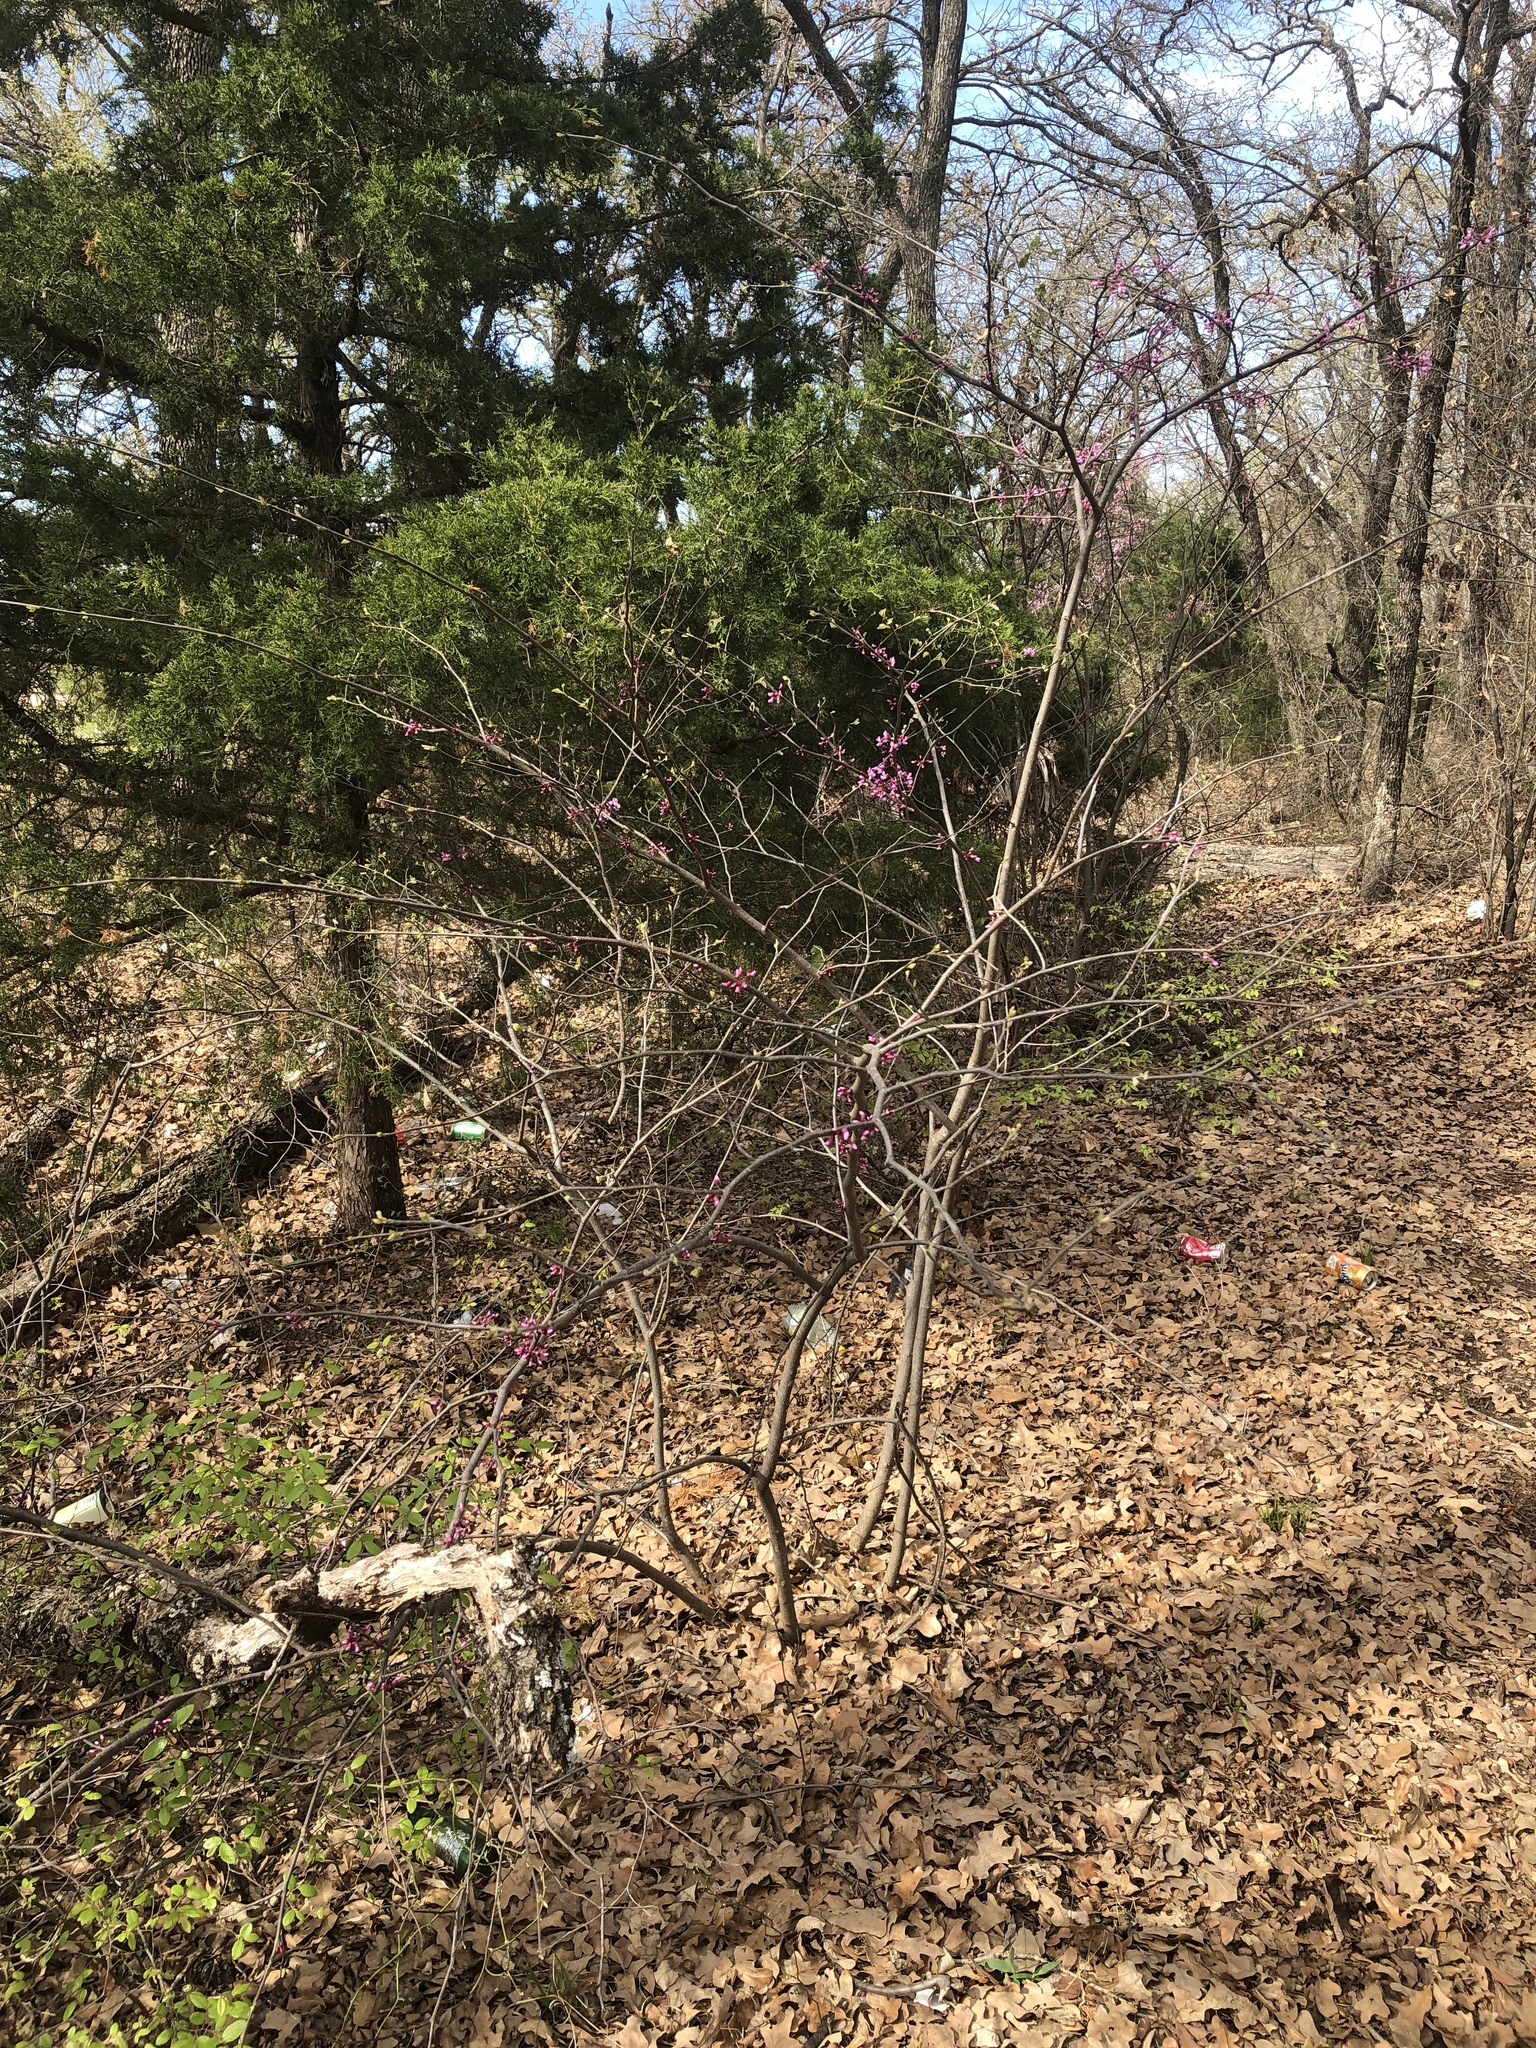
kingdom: Plantae
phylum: Tracheophyta
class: Magnoliopsida
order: Fabales
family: Fabaceae
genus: Cercis
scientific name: Cercis canadensis
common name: Eastern redbud
